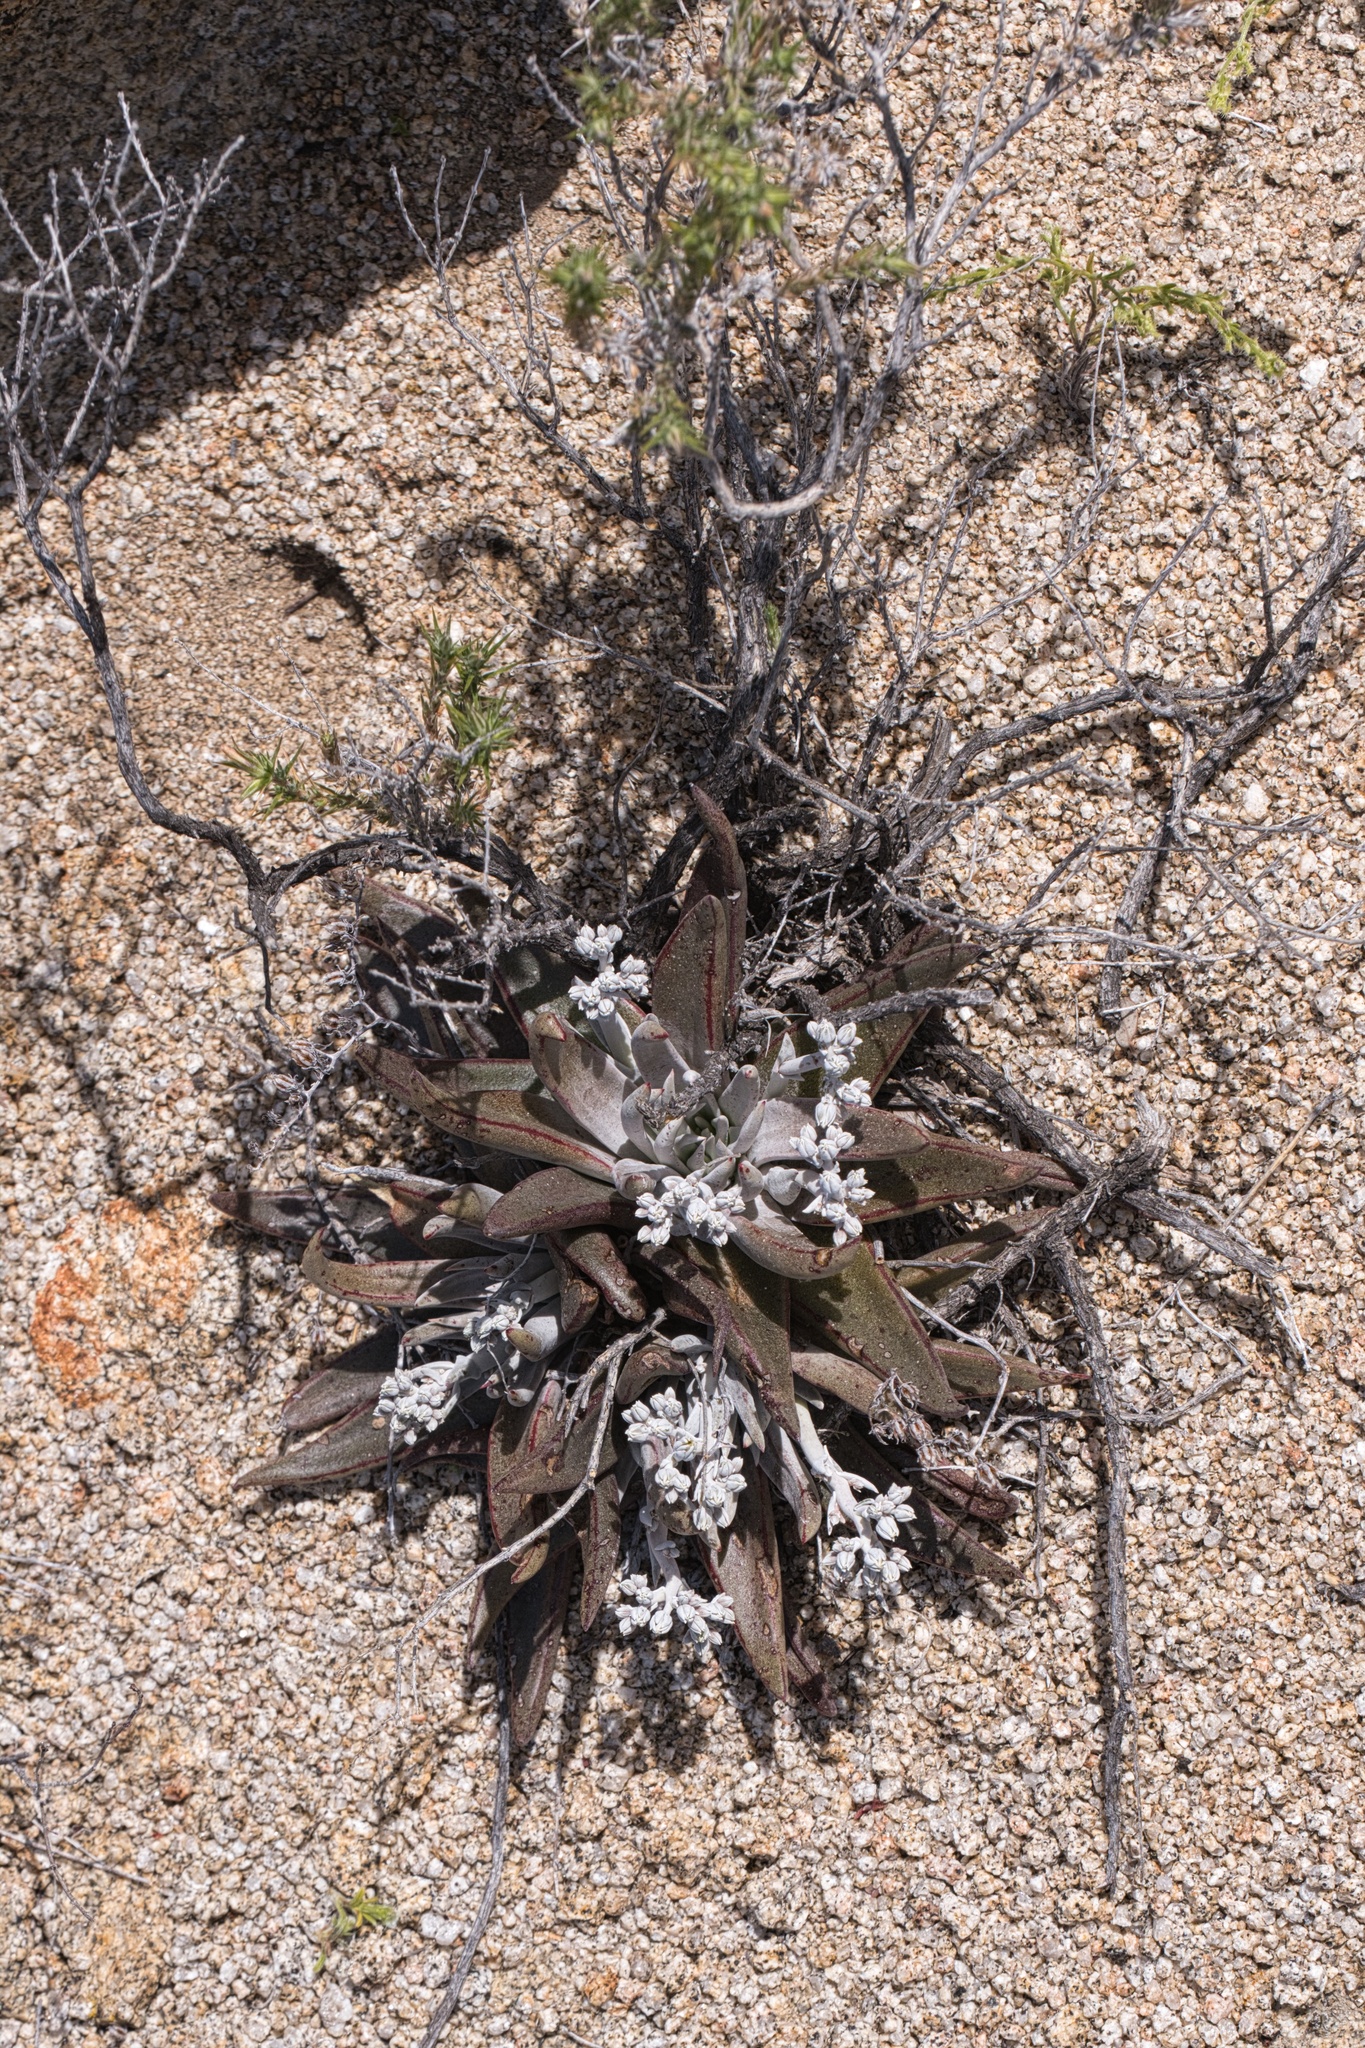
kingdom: Plantae
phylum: Tracheophyta
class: Magnoliopsida
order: Saxifragales
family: Crassulaceae
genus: Dudleya
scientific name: Dudleya abramsii
